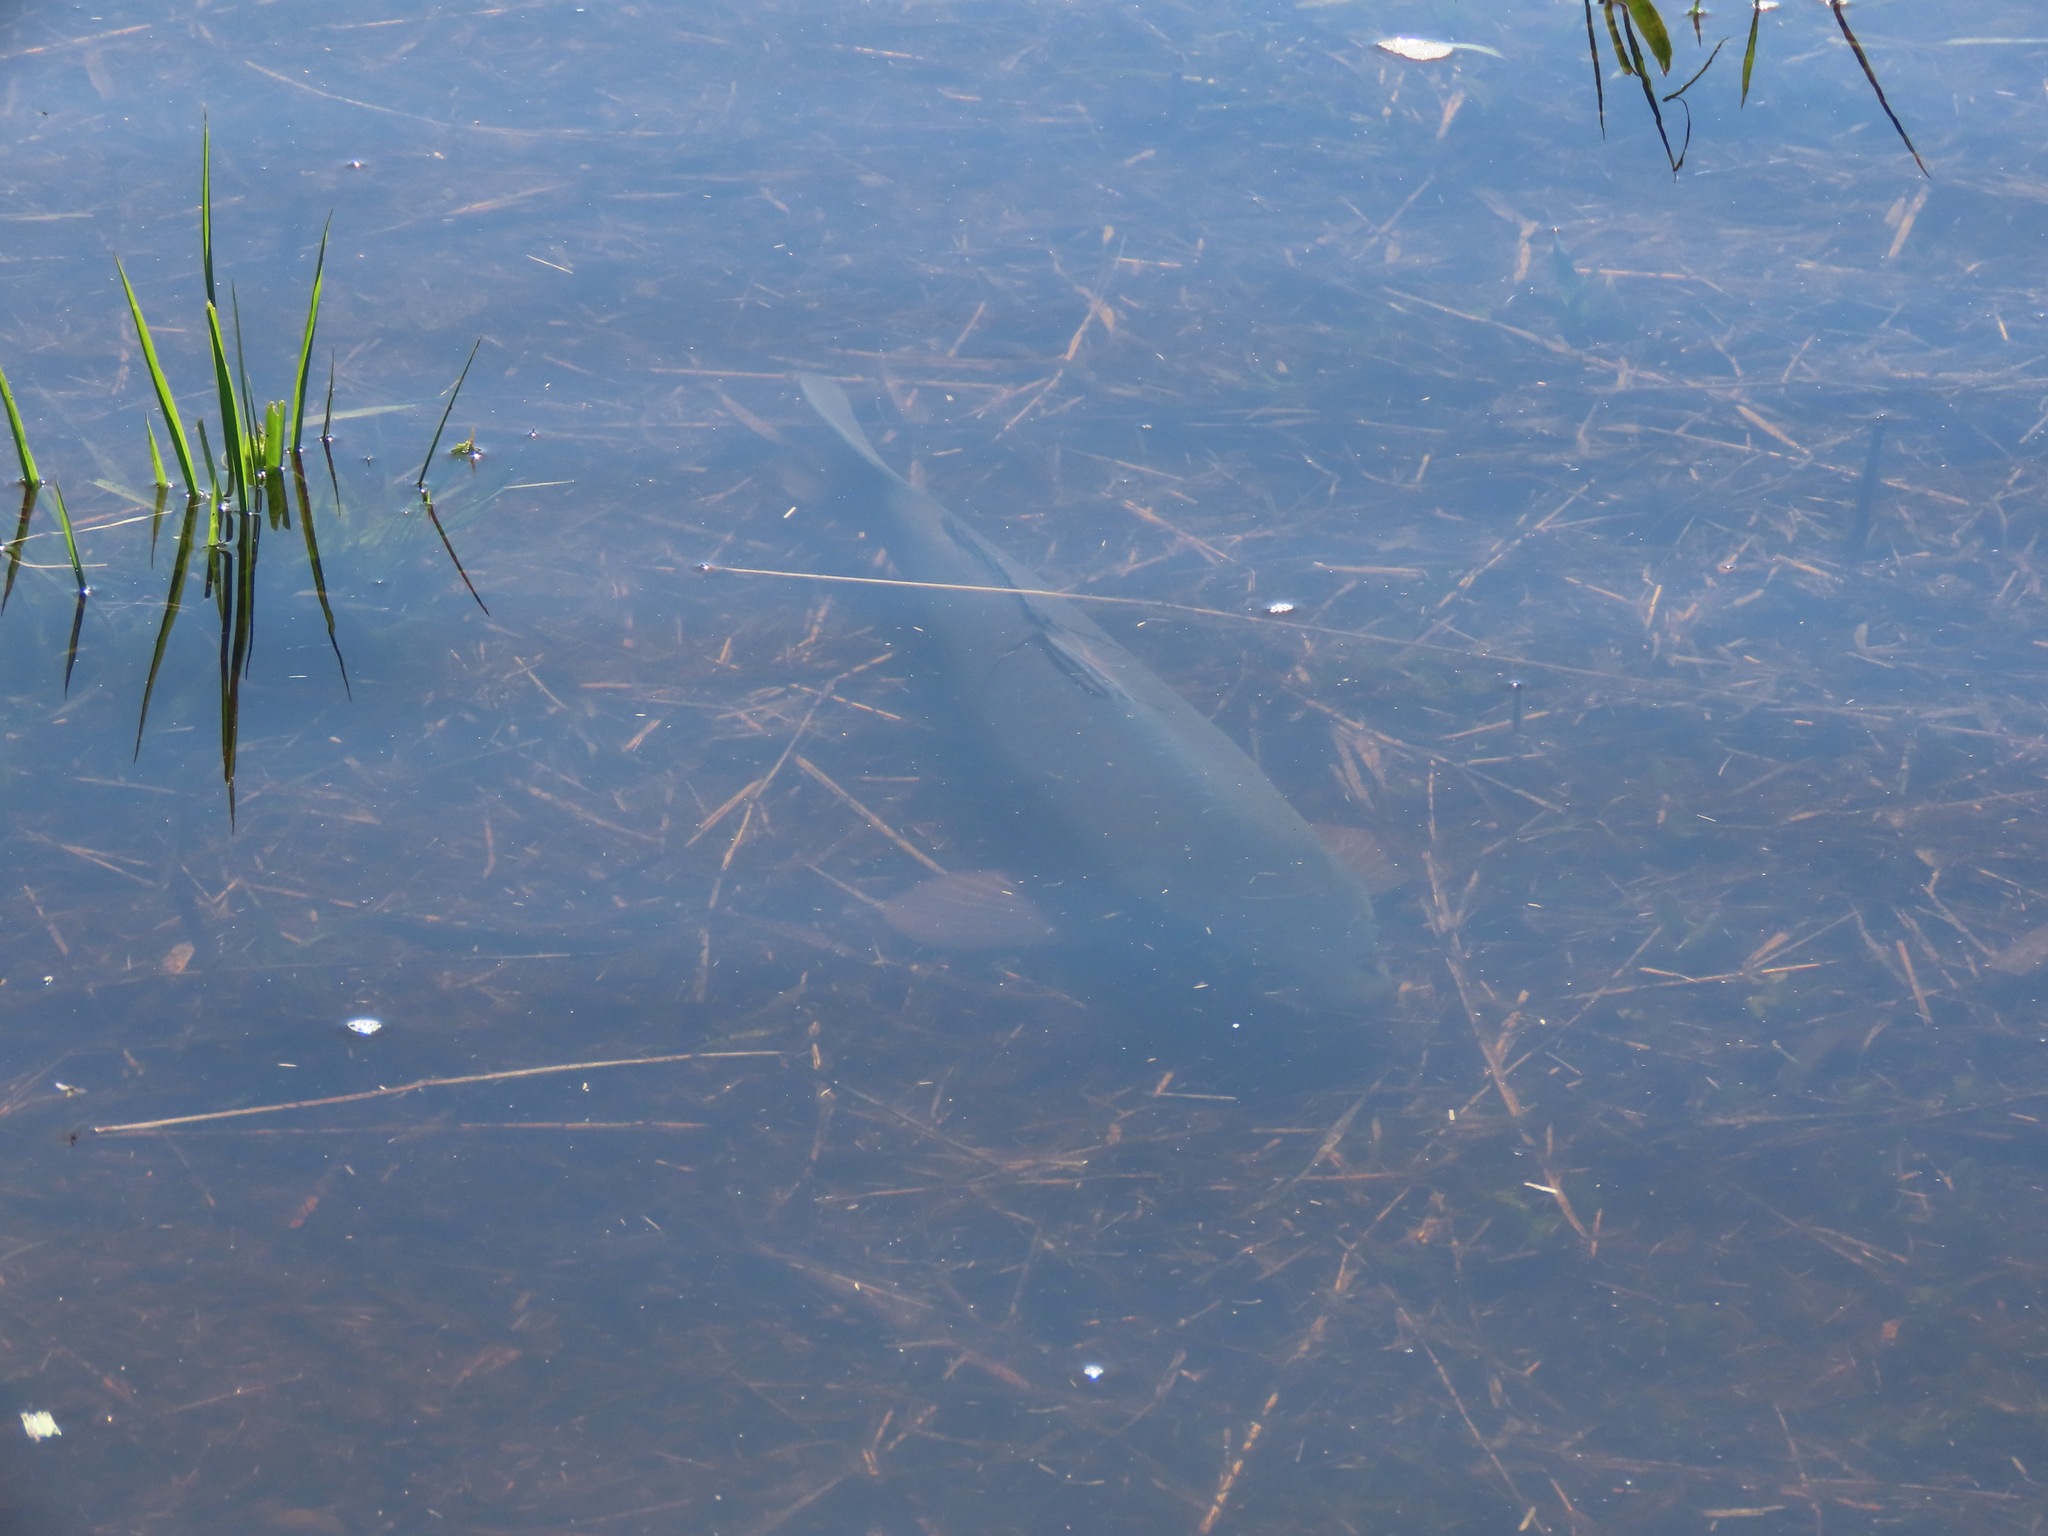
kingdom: Animalia
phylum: Chordata
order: Cypriniformes
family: Cyprinidae
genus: Cyprinus
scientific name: Cyprinus carpio
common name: Common carp
